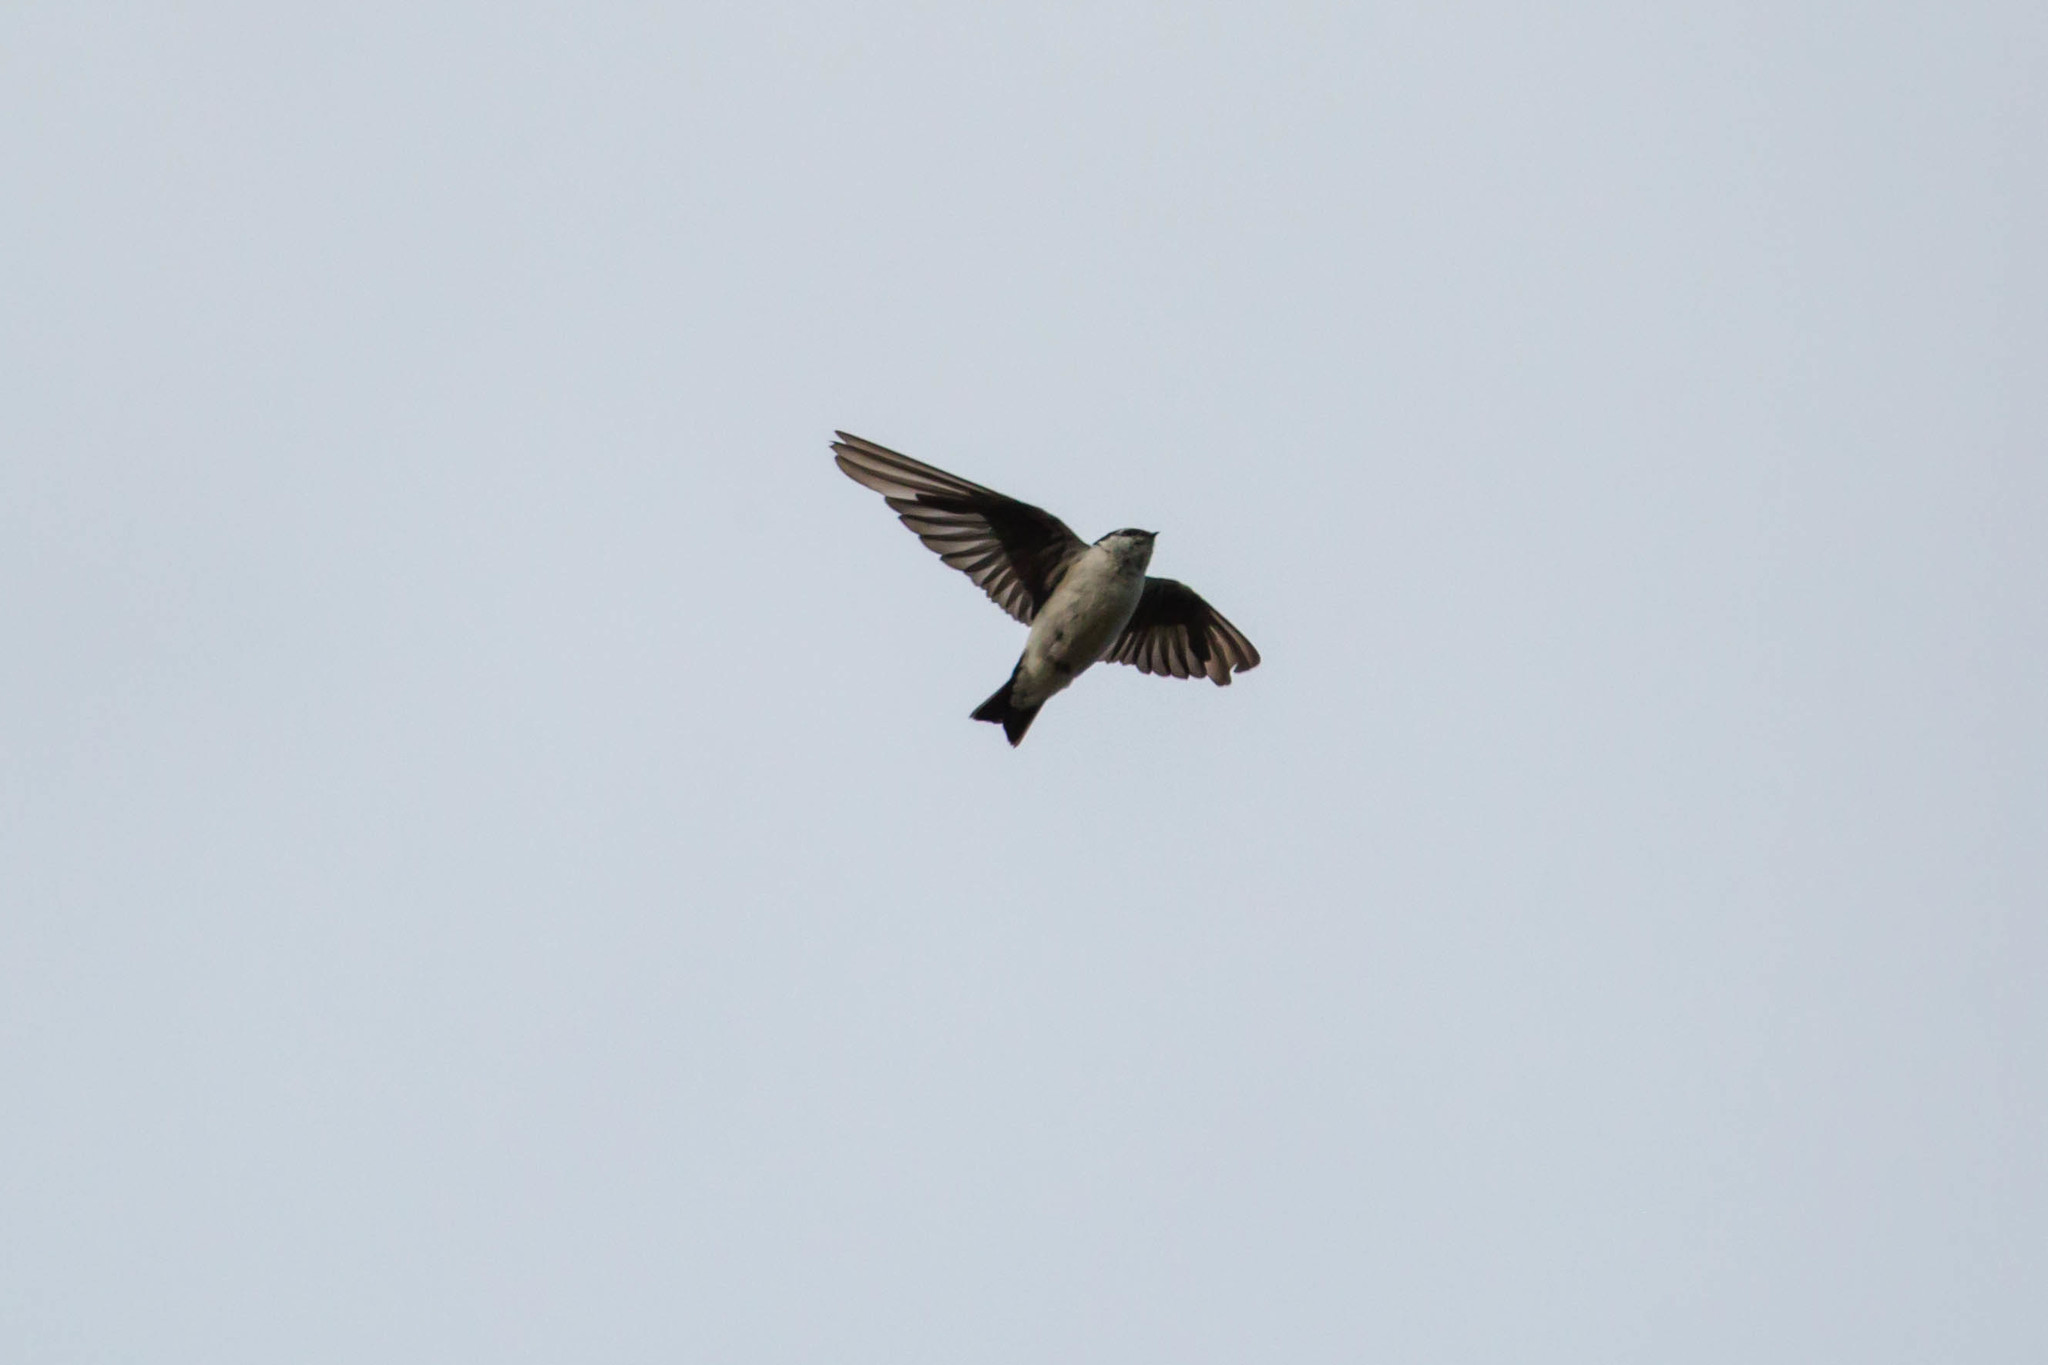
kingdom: Animalia
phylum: Chordata
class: Aves
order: Passeriformes
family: Hirundinidae
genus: Tachycineta
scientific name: Tachycineta thalassina
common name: Violet-green swallow
